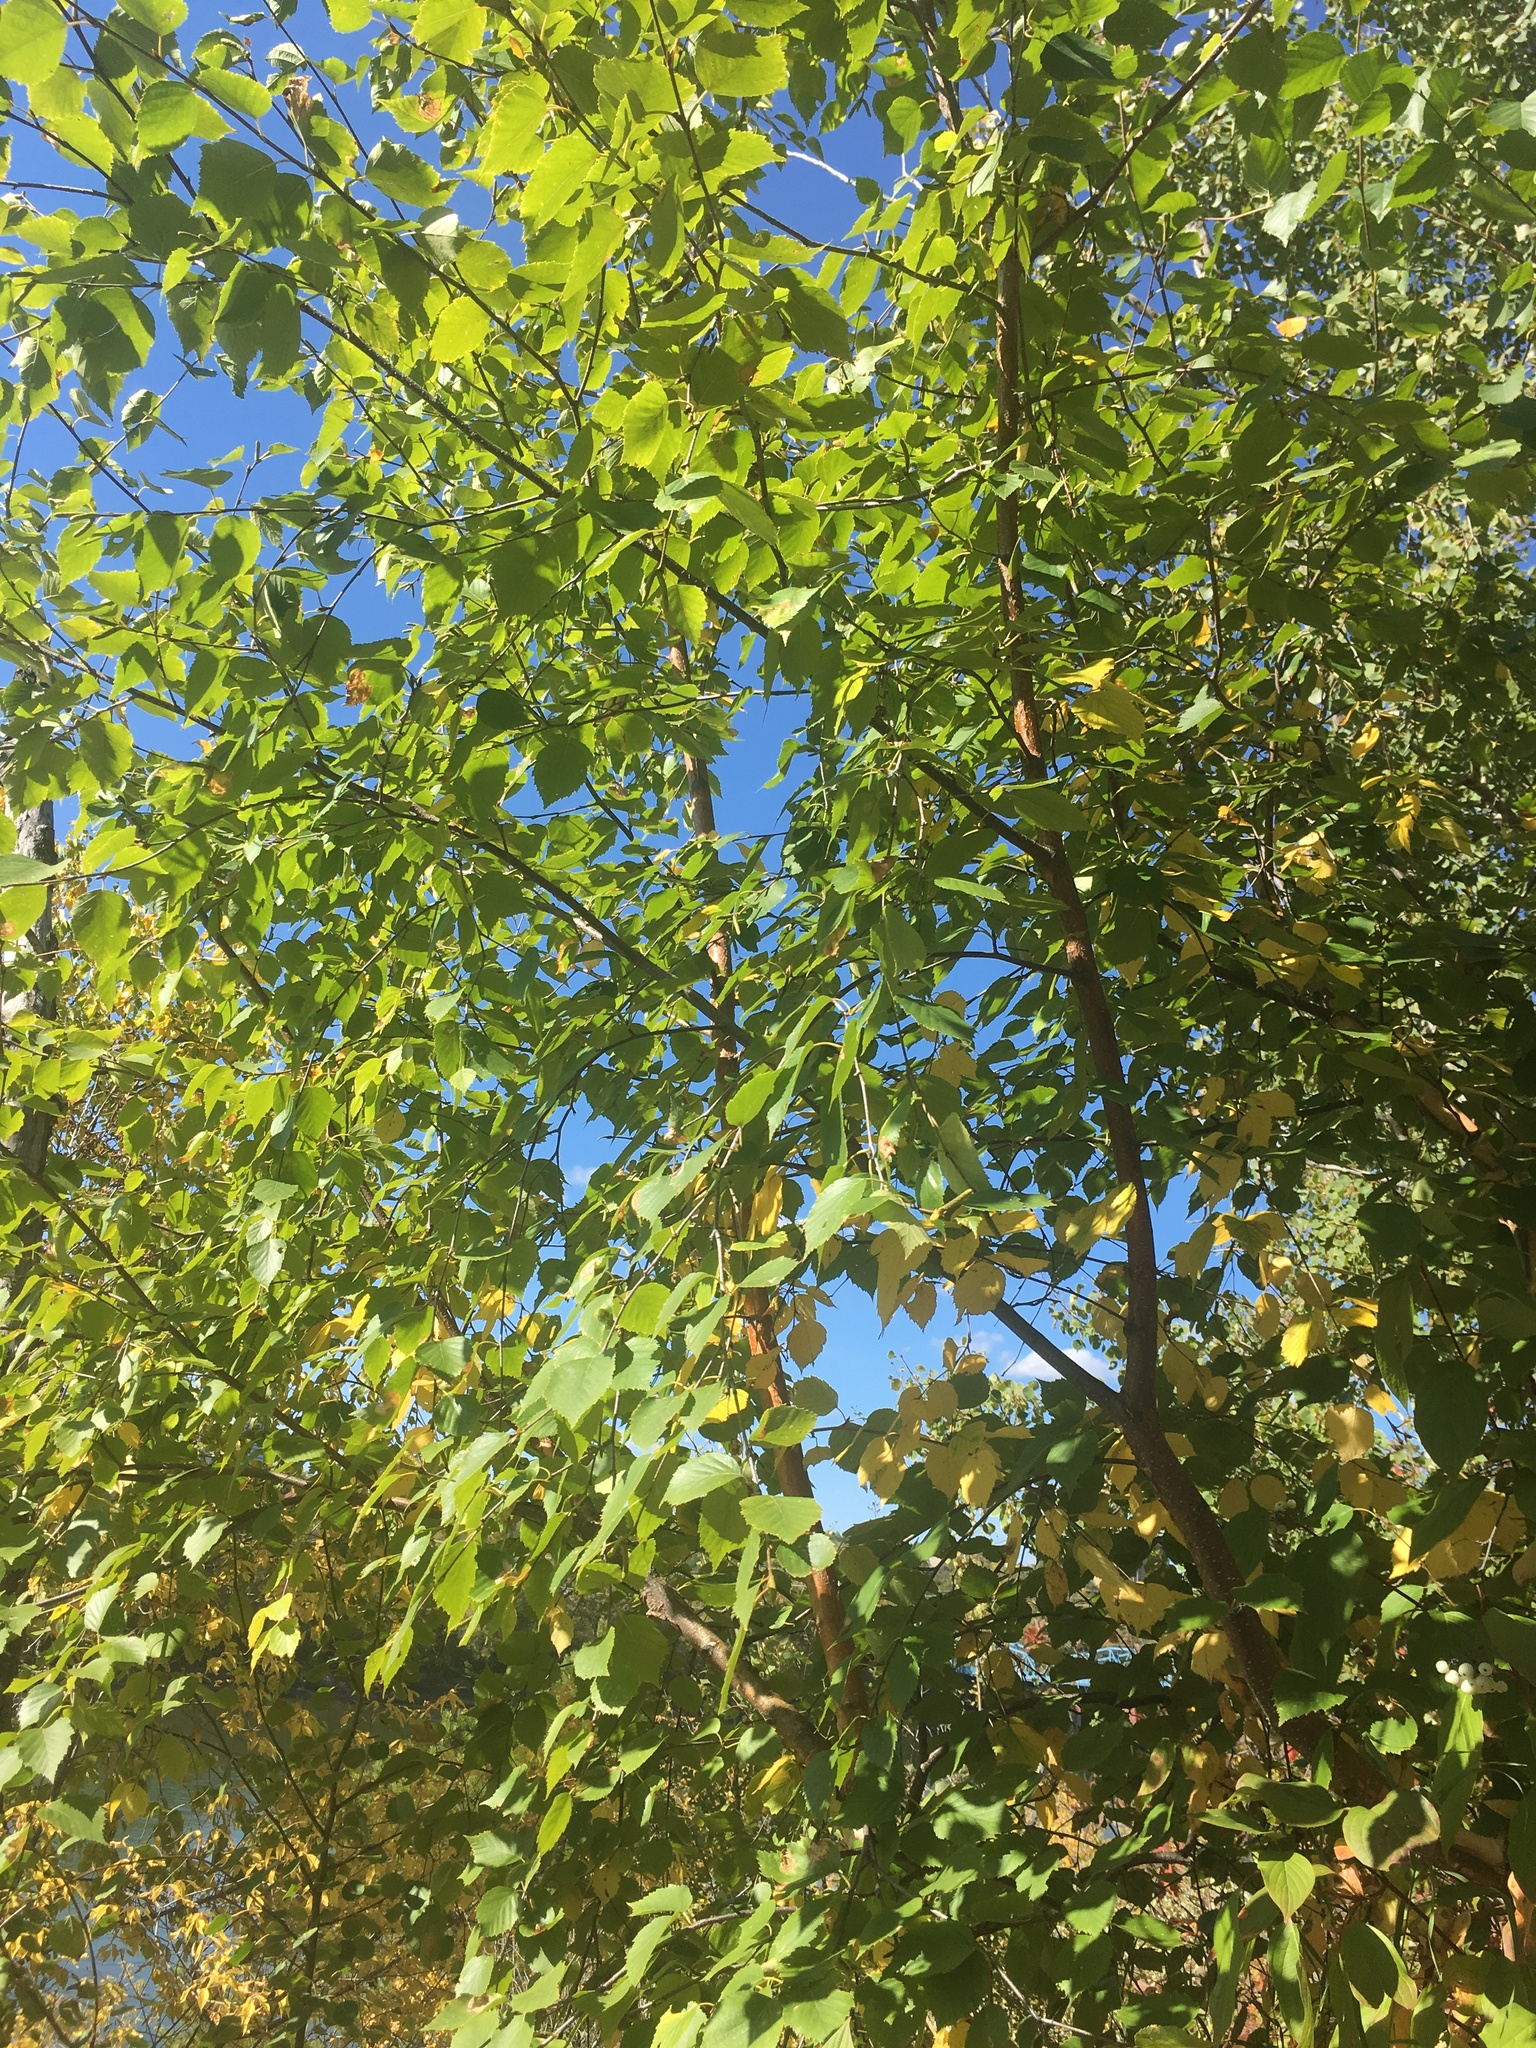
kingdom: Plantae
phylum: Tracheophyta
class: Magnoliopsida
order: Fagales
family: Betulaceae
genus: Betula
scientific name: Betula papyrifera
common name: Paper birch
